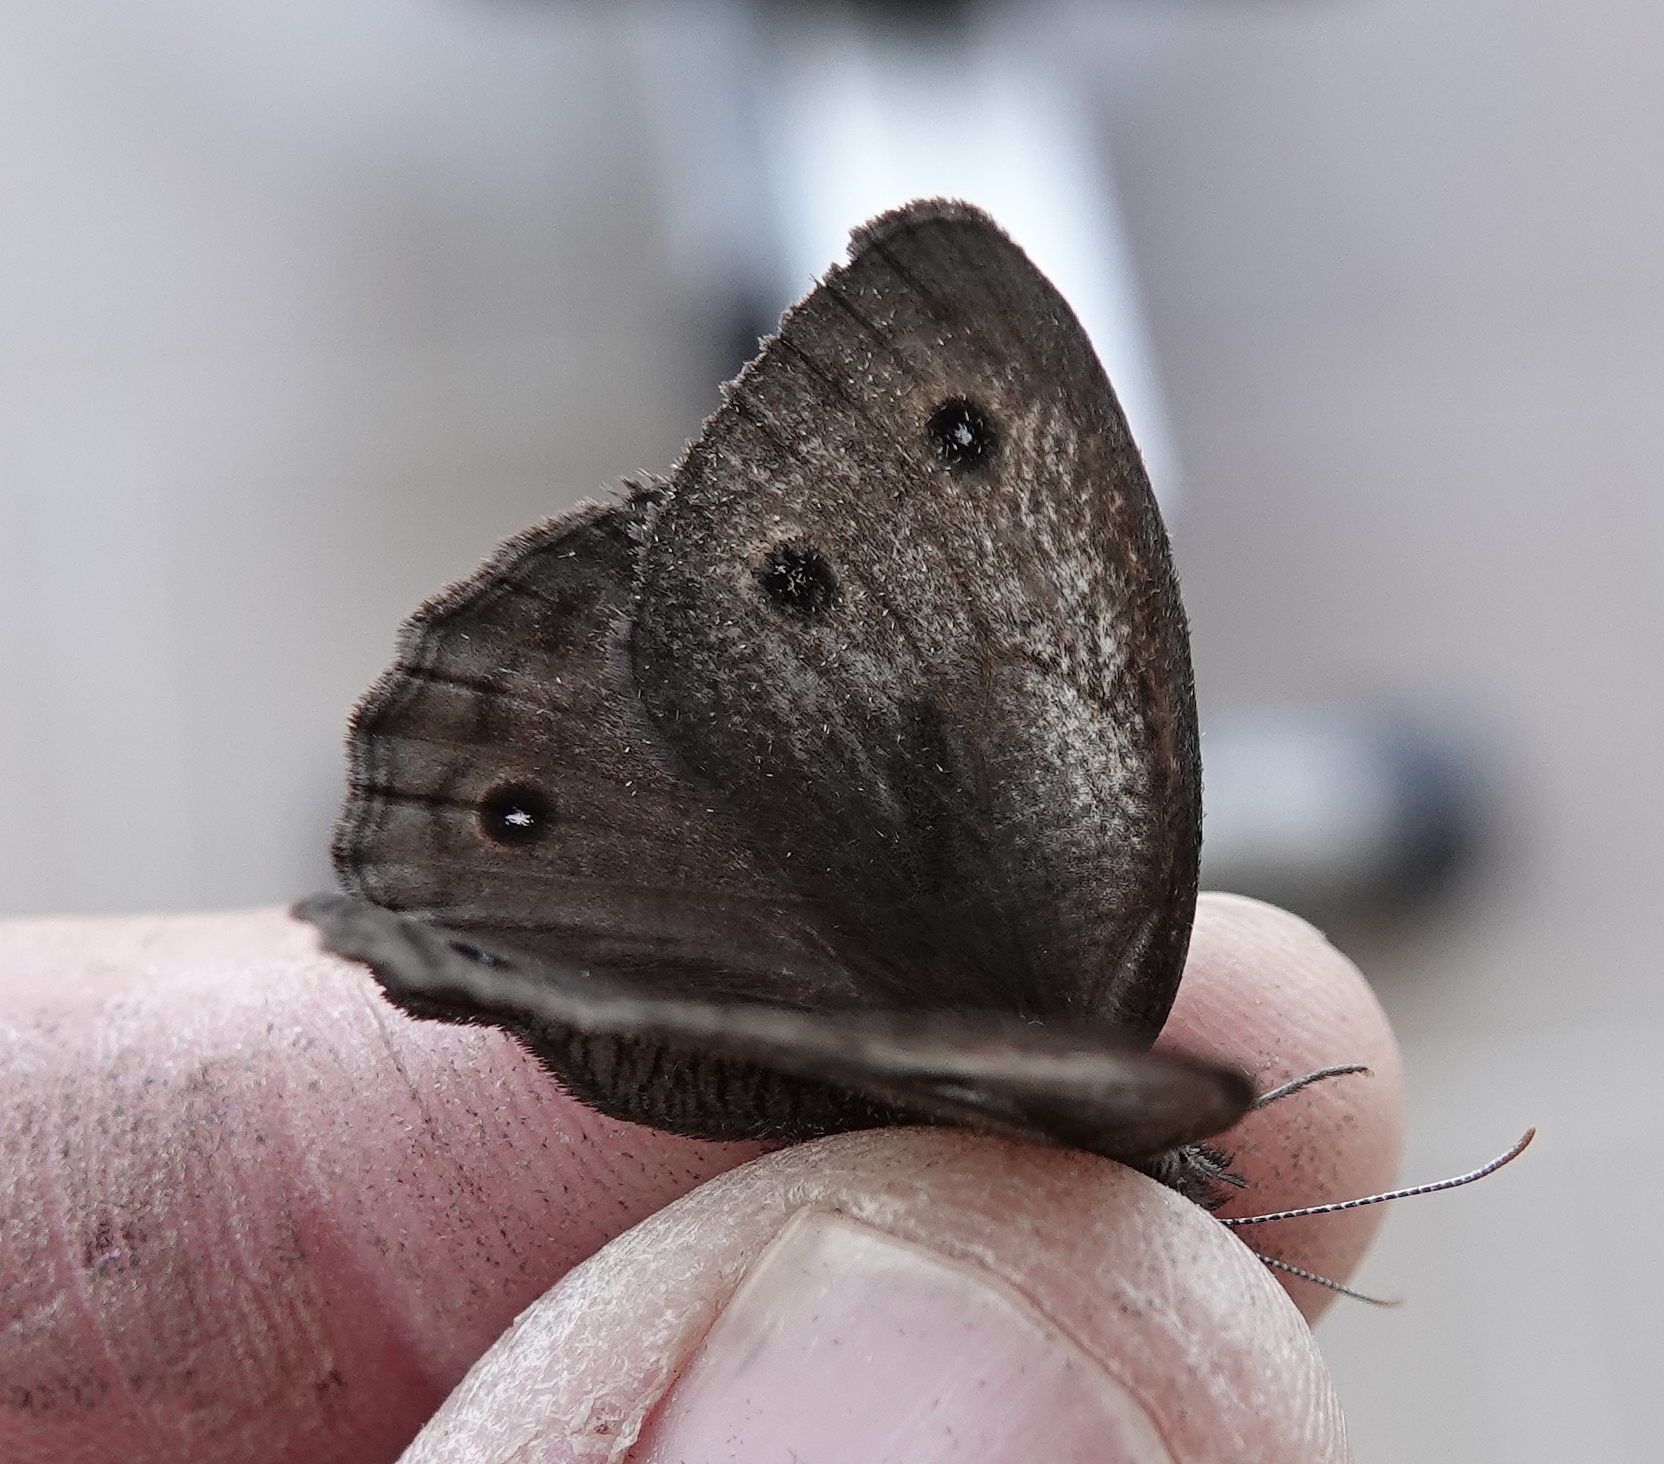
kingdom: Animalia
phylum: Arthropoda
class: Insecta
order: Lepidoptera
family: Nymphalidae
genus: Cercyonis
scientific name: Cercyonis pegala
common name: Common wood-nymph
